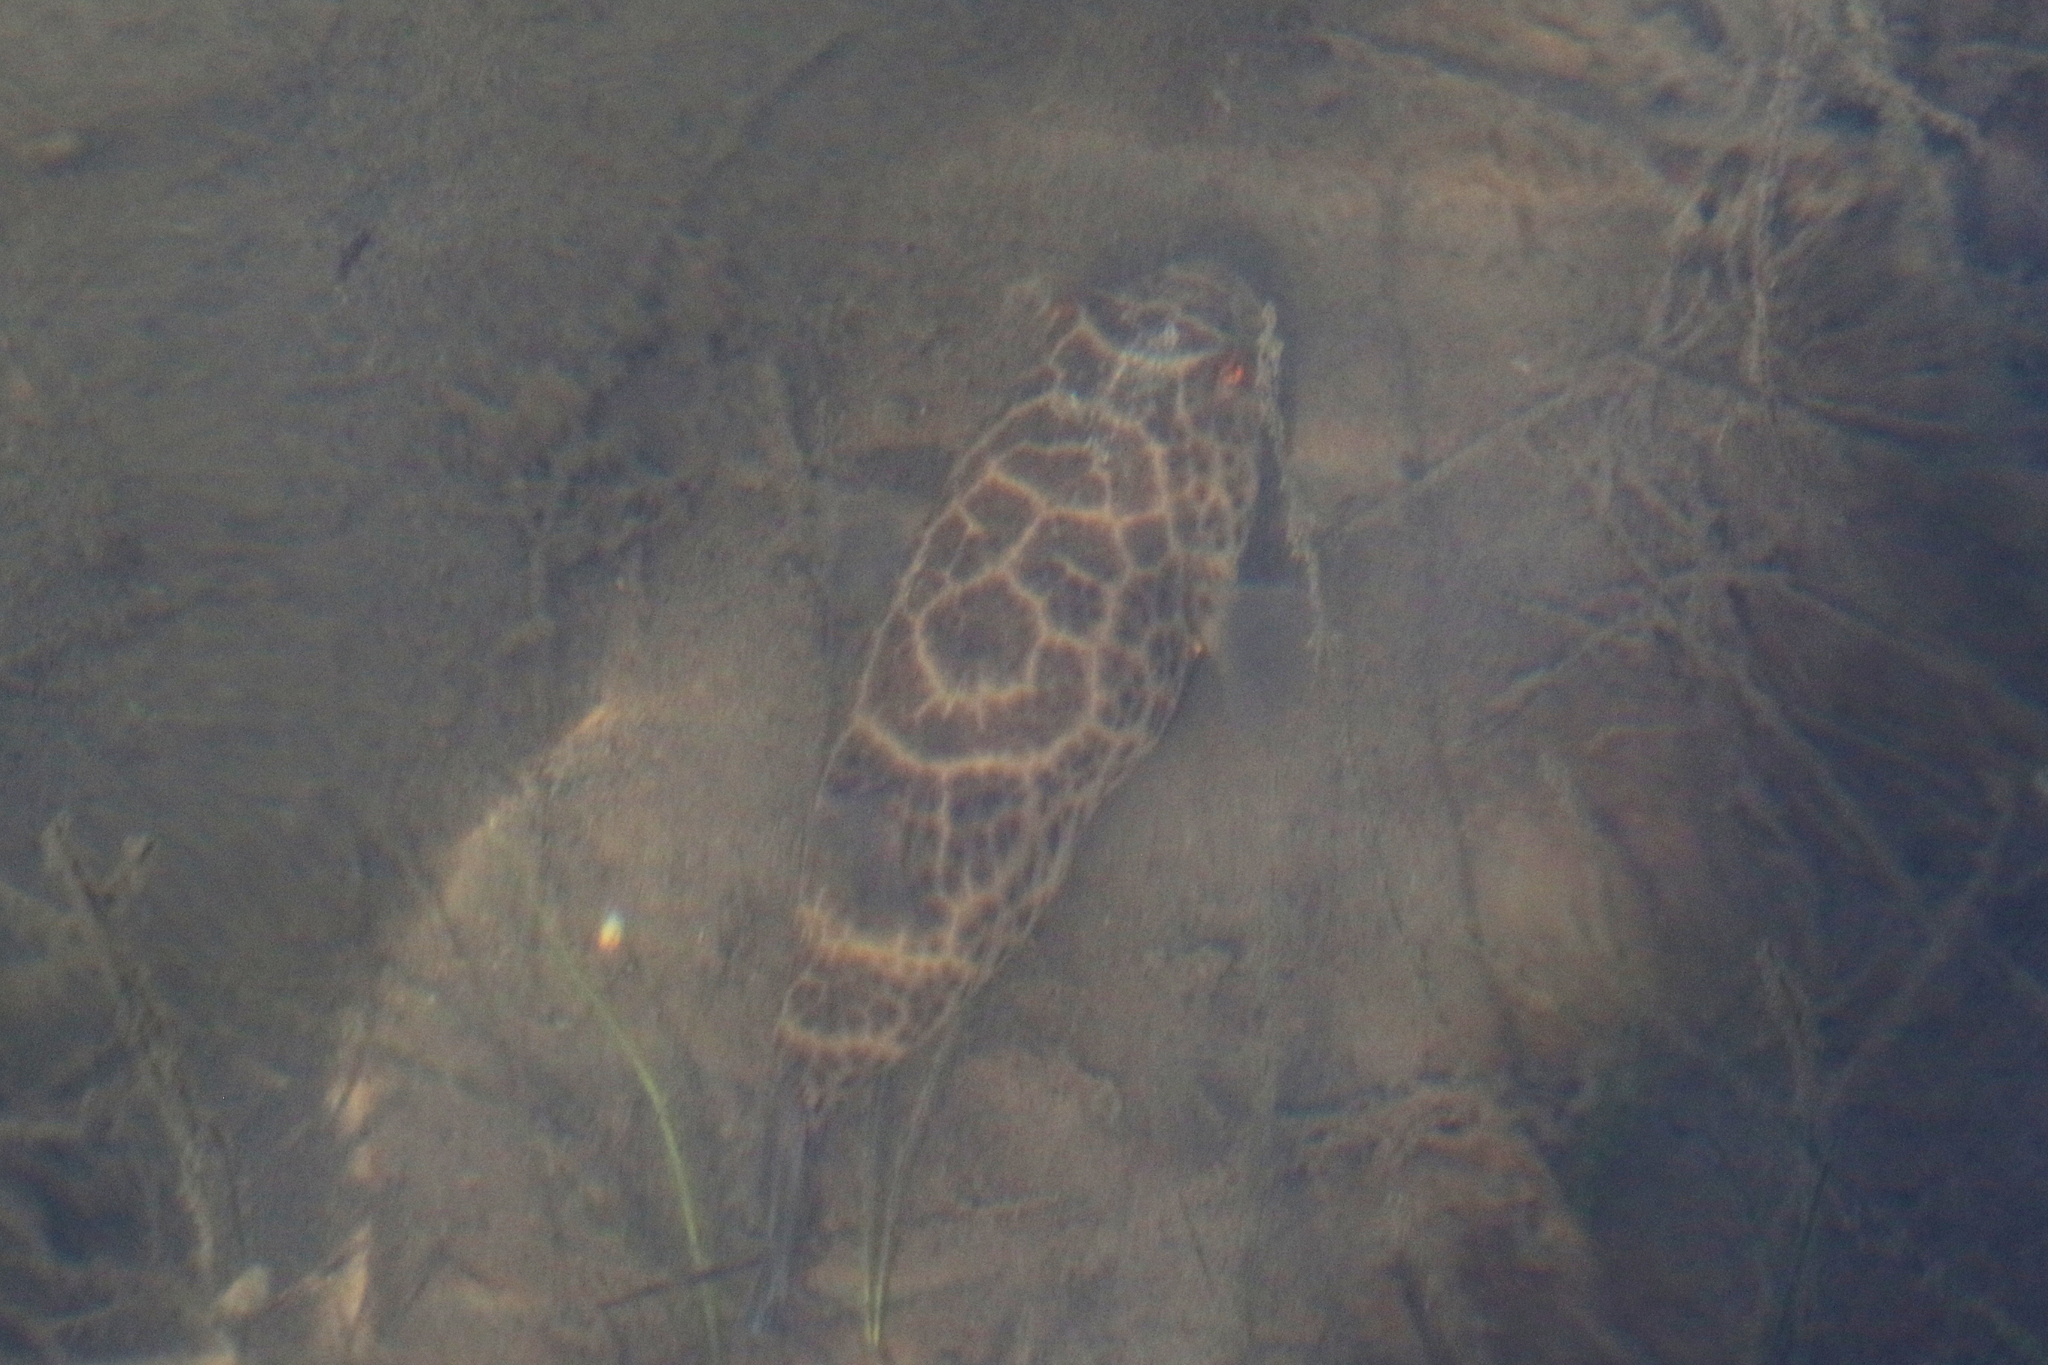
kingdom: Animalia
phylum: Chordata
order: Tetraodontiformes
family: Tetraodontidae
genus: Sphoeroides
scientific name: Sphoeroides testudineus
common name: Checkered puffer
